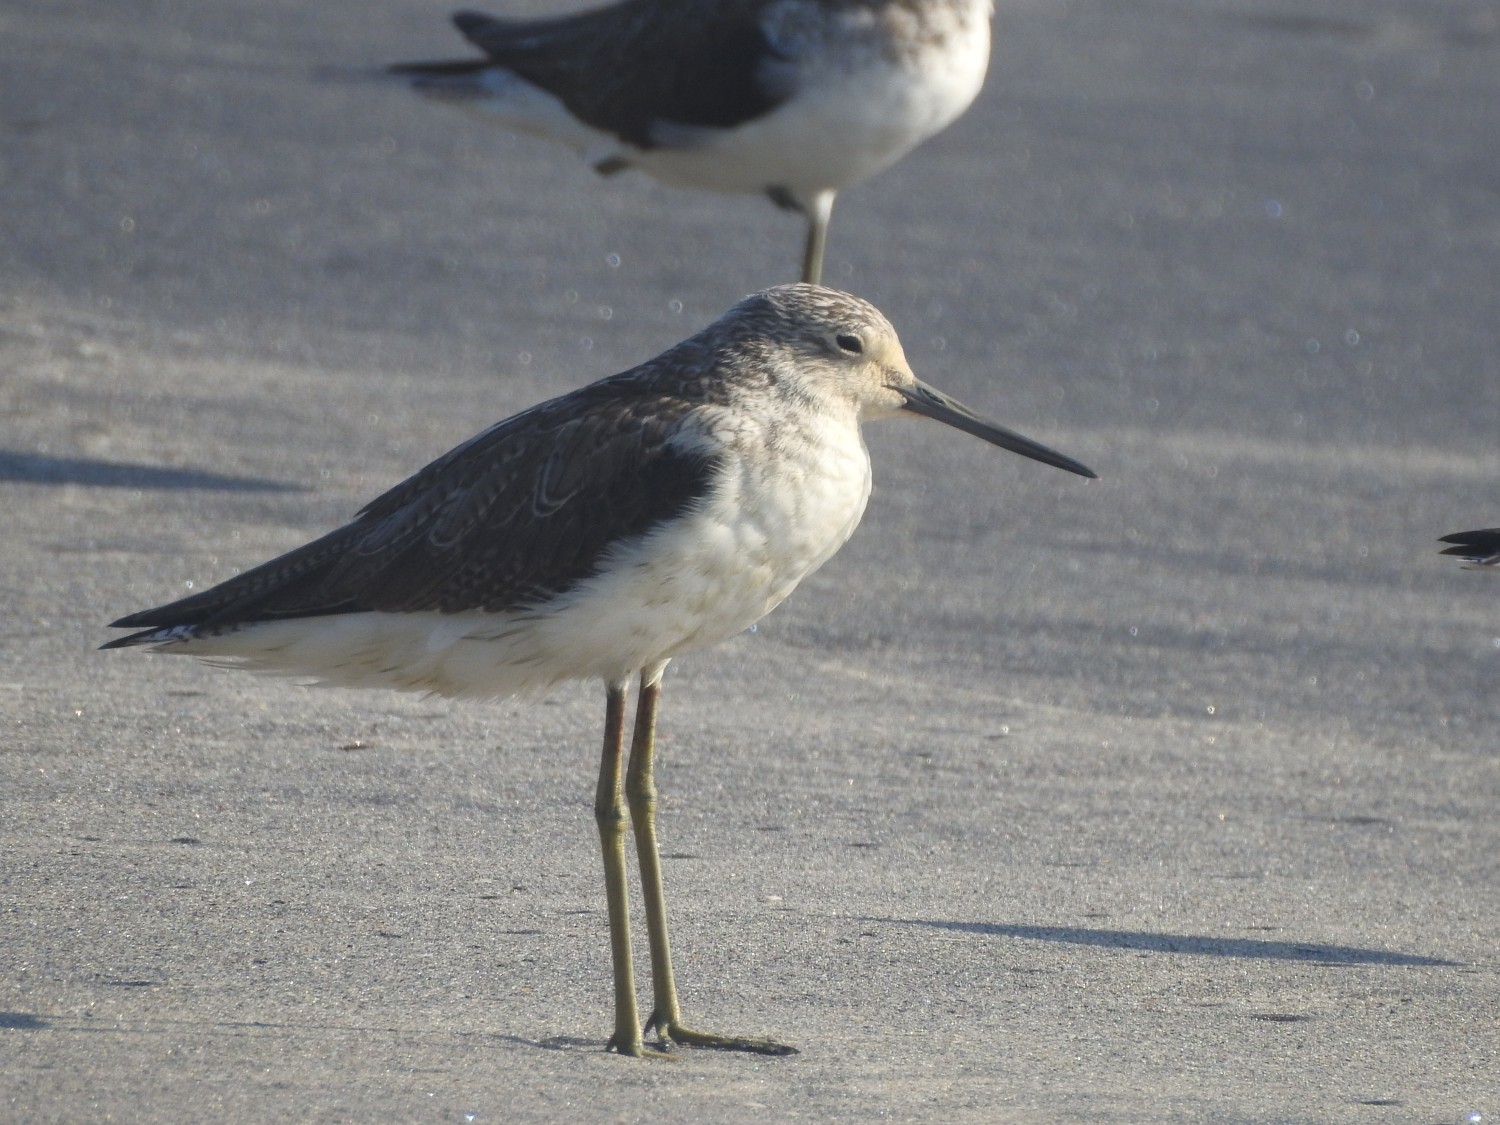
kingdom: Animalia
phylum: Chordata
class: Aves
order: Charadriiformes
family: Scolopacidae
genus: Tringa
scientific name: Tringa nebularia
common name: Common greenshank
